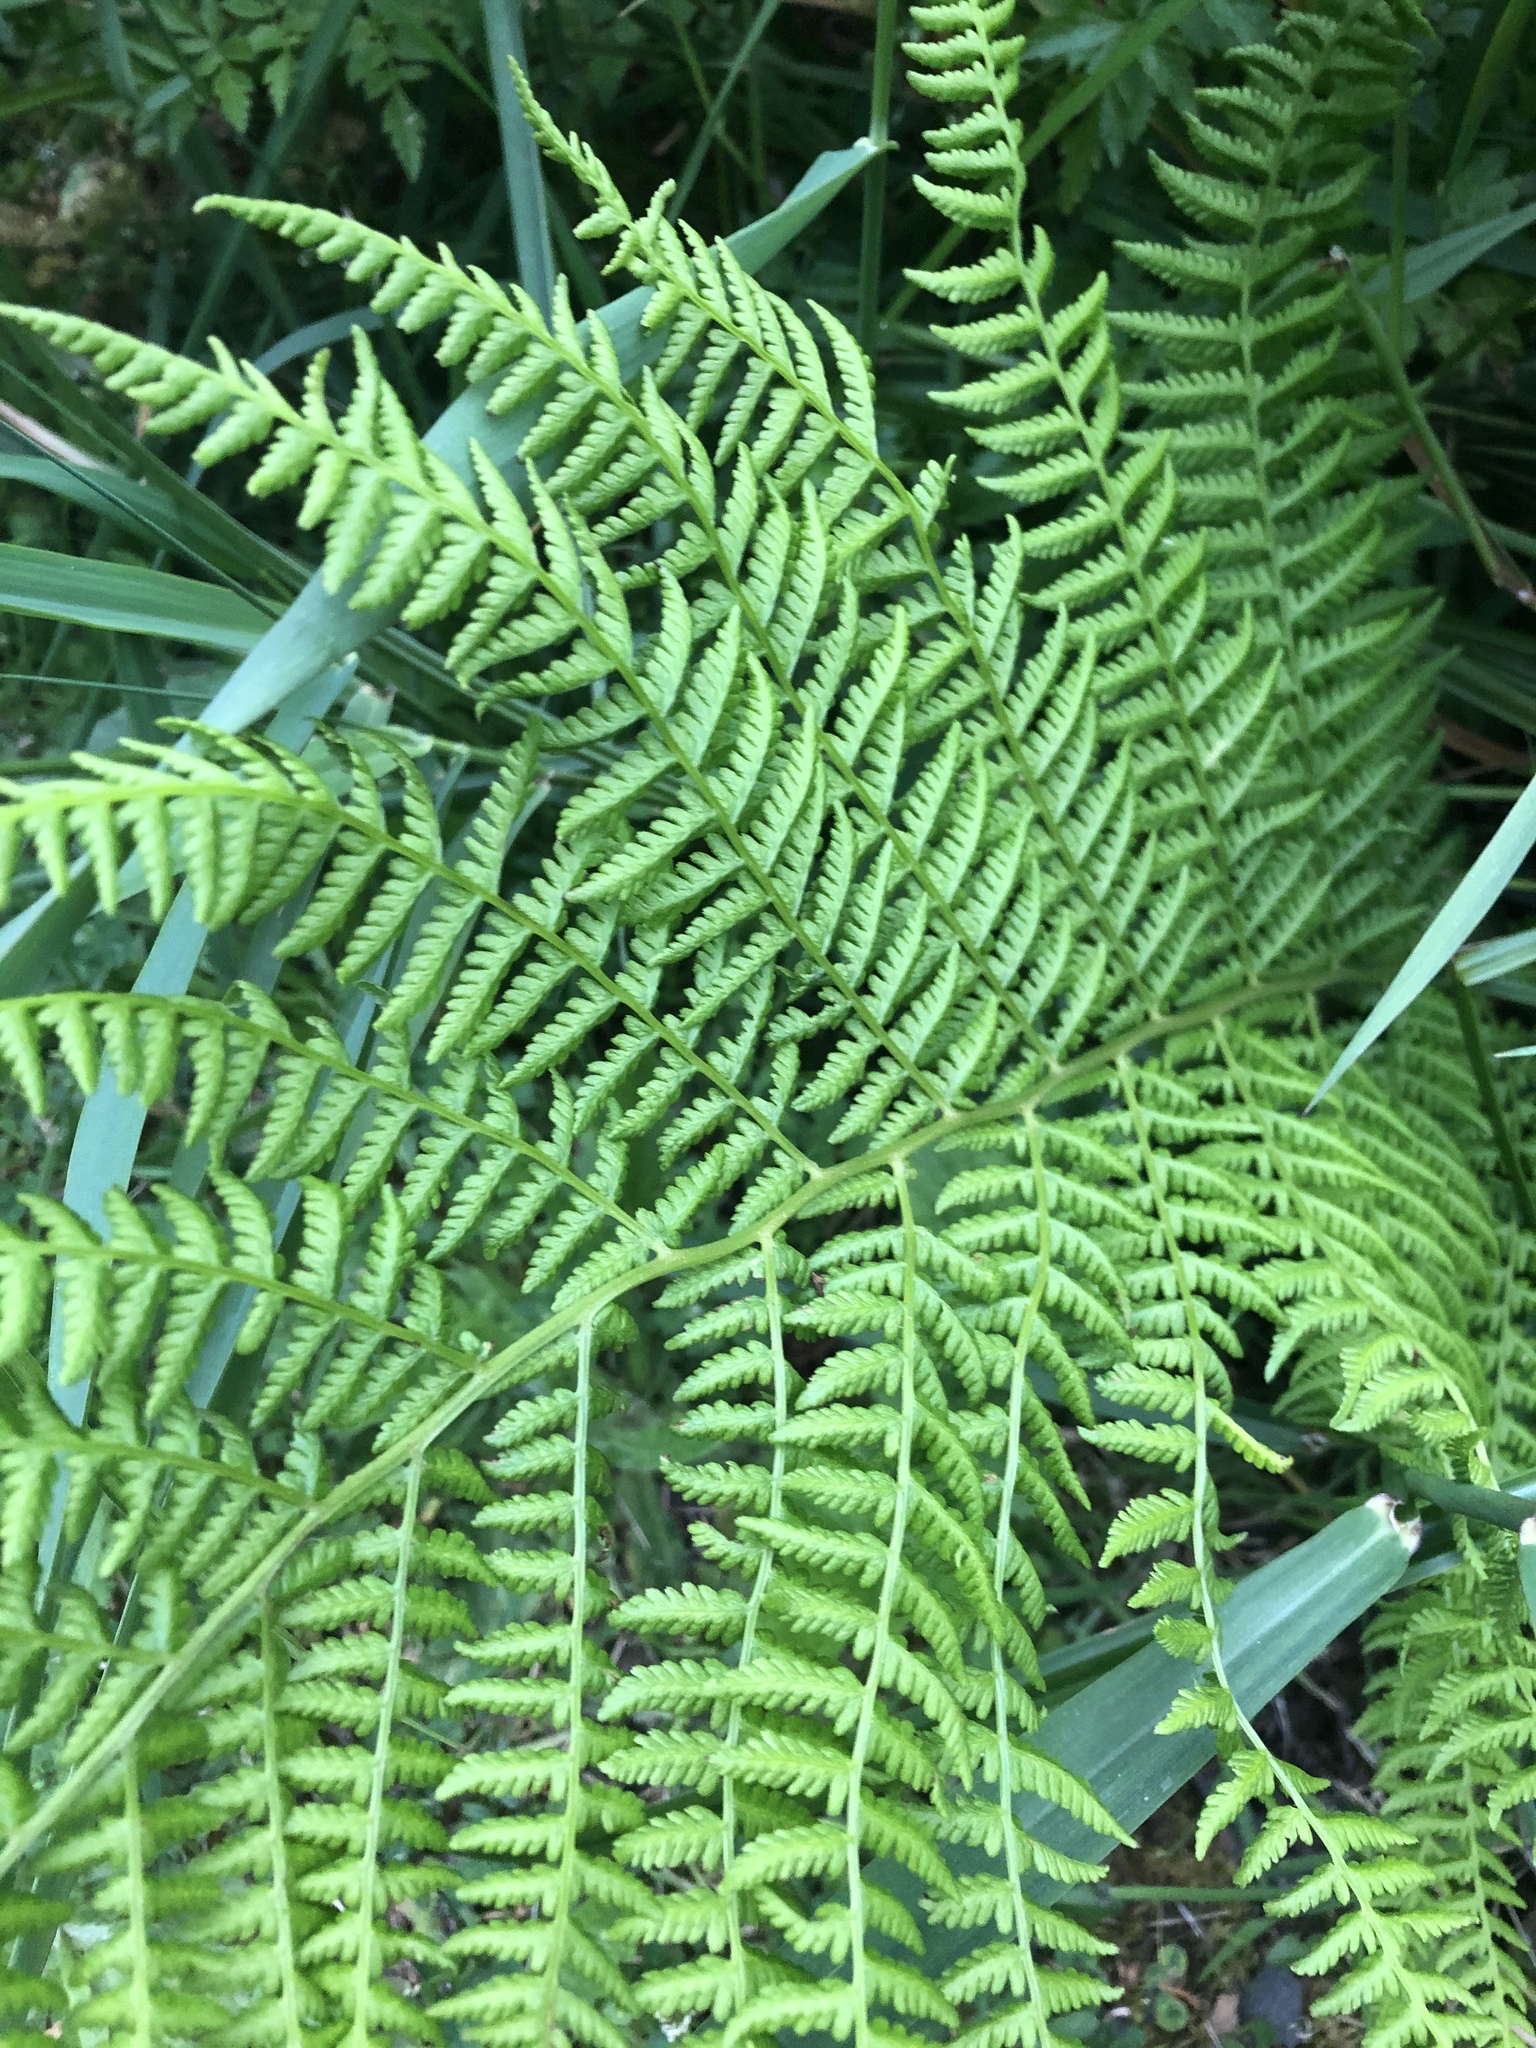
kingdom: Plantae
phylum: Tracheophyta
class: Polypodiopsida
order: Polypodiales
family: Athyriaceae
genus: Athyrium
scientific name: Athyrium filix-femina
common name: Lady fern
